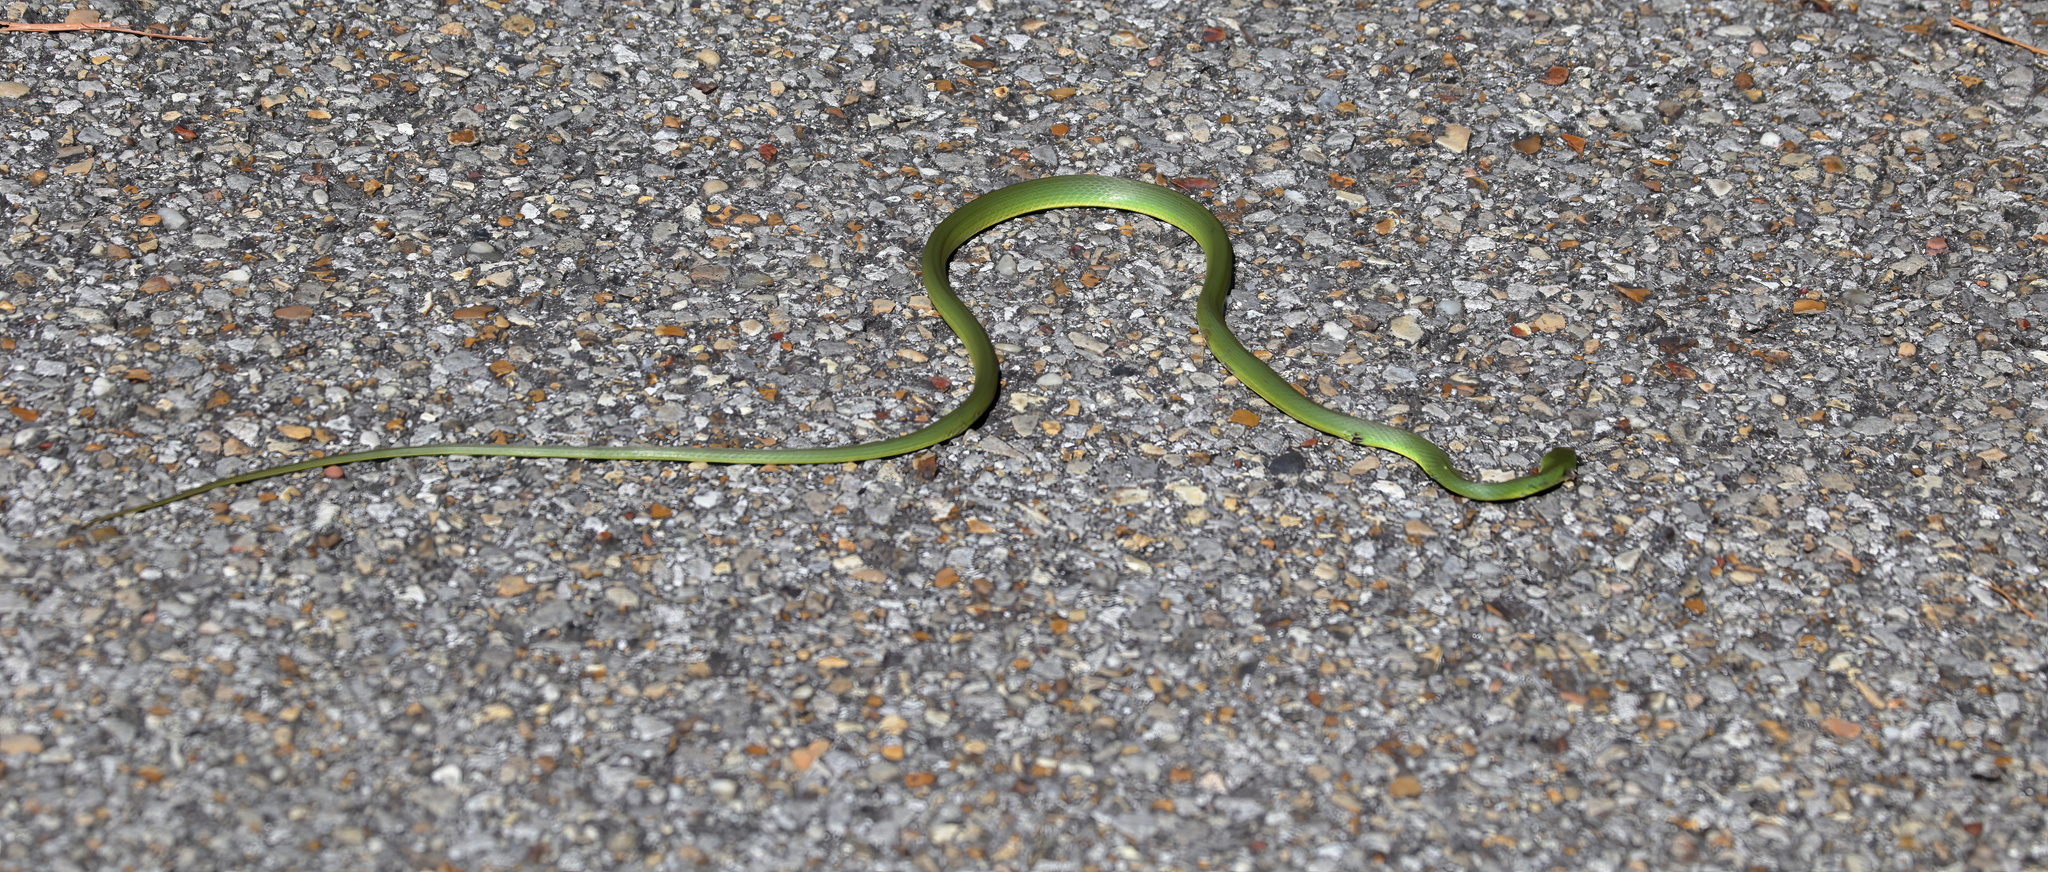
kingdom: Animalia
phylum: Chordata
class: Squamata
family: Colubridae
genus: Opheodrys
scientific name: Opheodrys aestivus
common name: Rough greensnake
